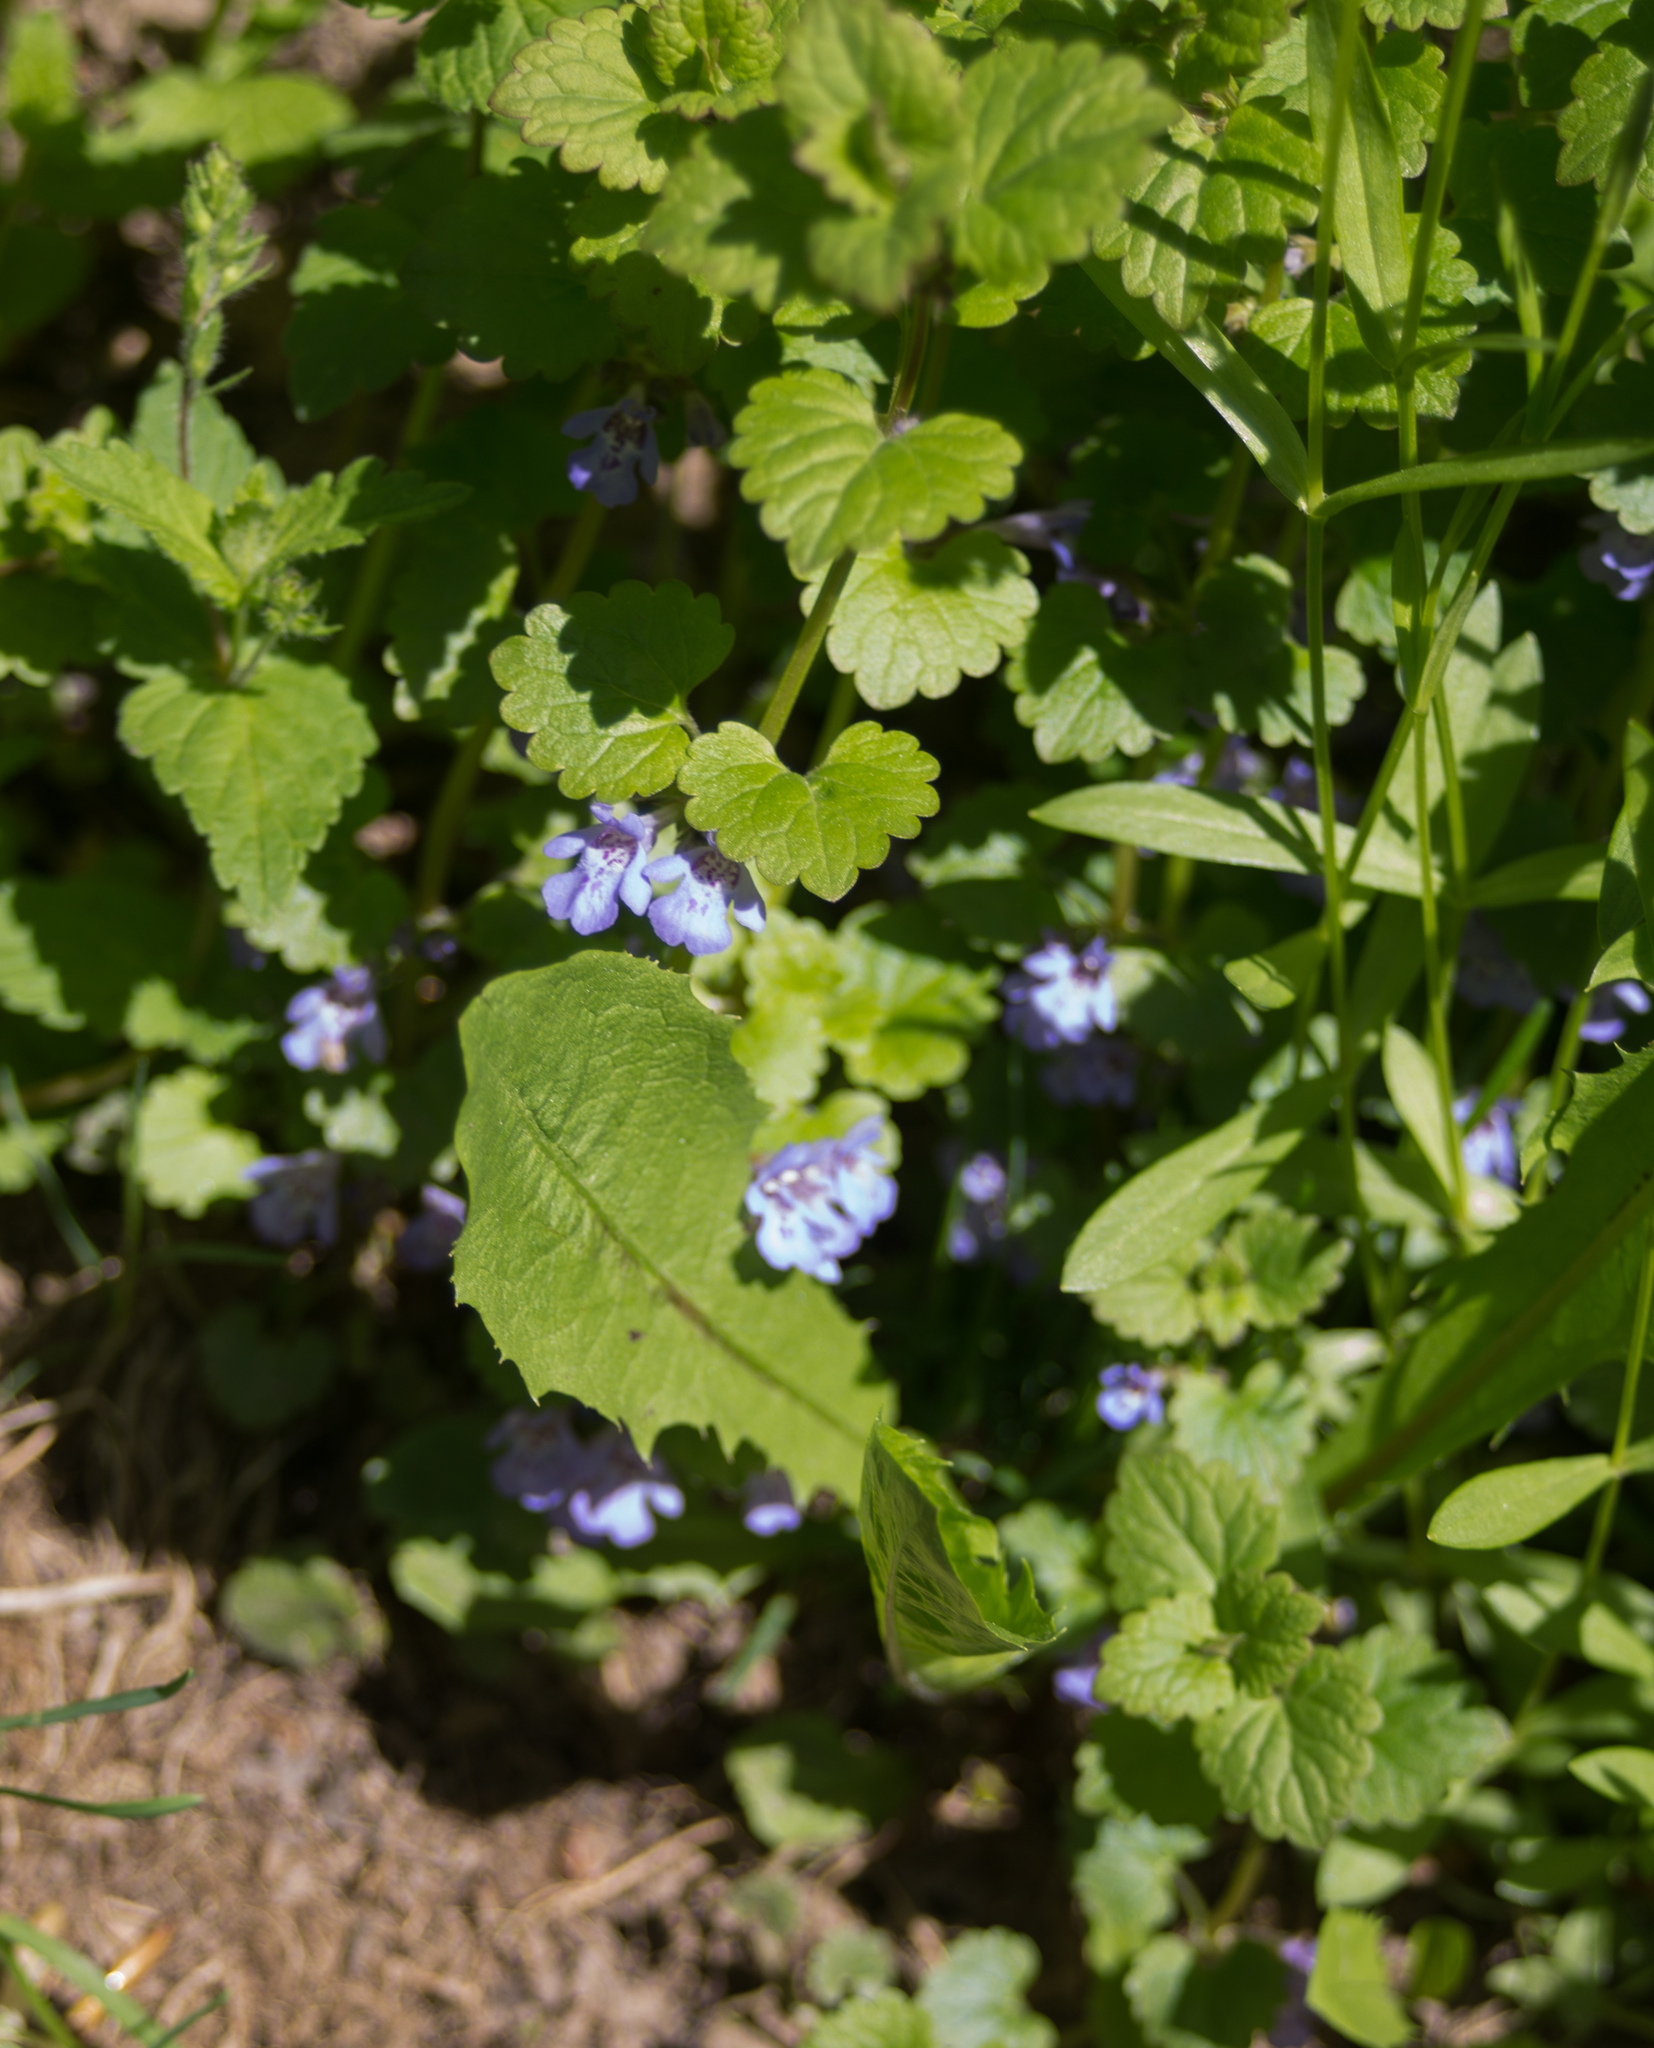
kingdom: Plantae
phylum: Tracheophyta
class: Magnoliopsida
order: Lamiales
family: Lamiaceae
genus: Glechoma
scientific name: Glechoma hederacea
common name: Ground ivy
